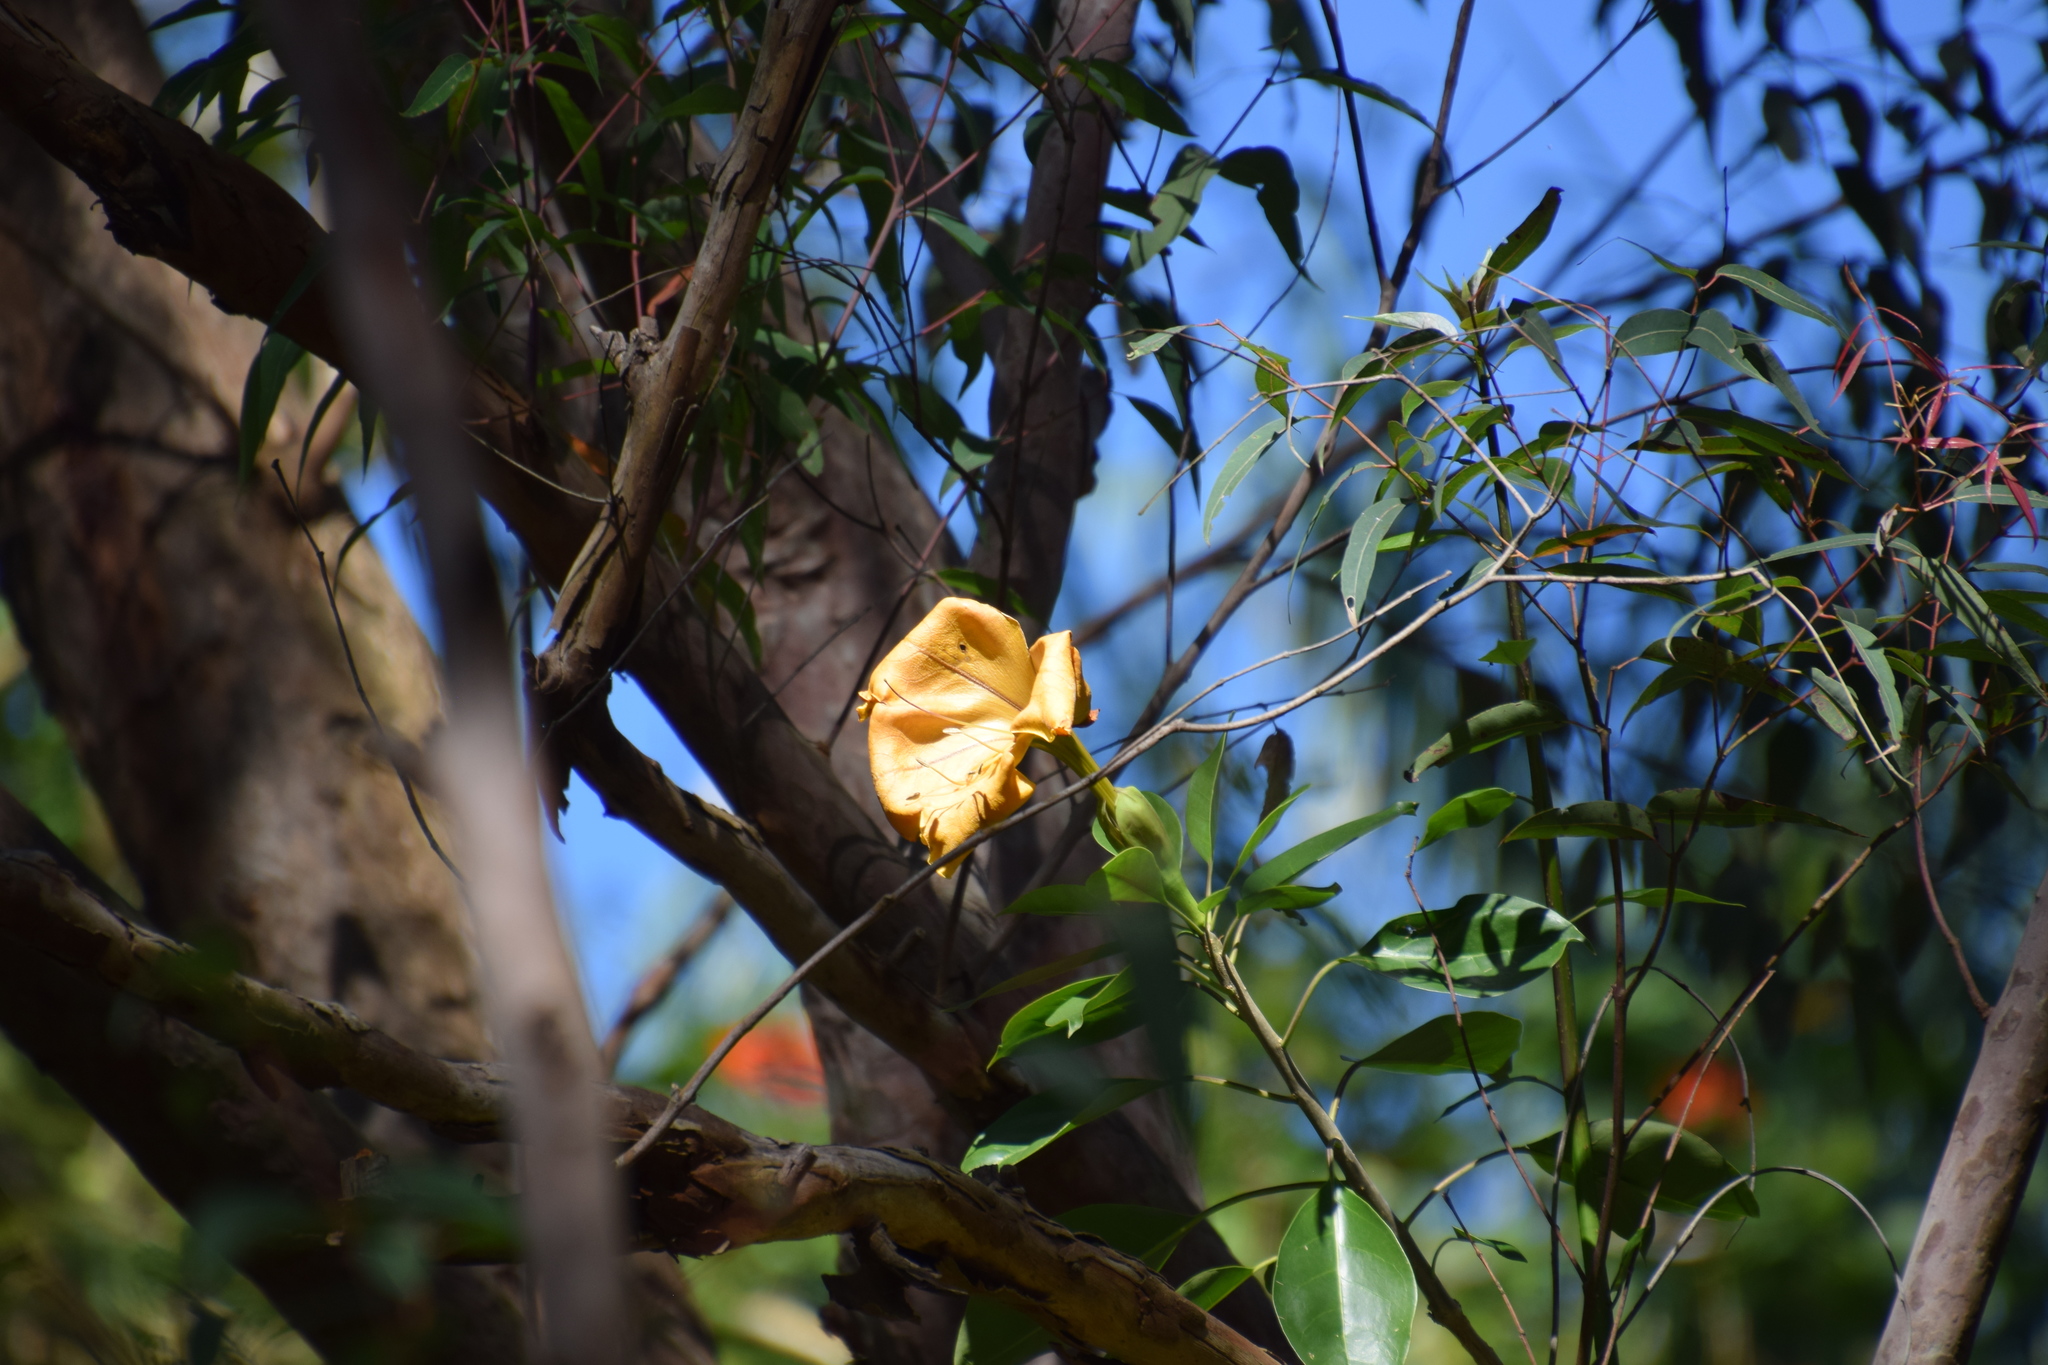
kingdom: Plantae
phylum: Tracheophyta
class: Magnoliopsida
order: Solanales
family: Solanaceae
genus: Solandra
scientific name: Solandra maxima
